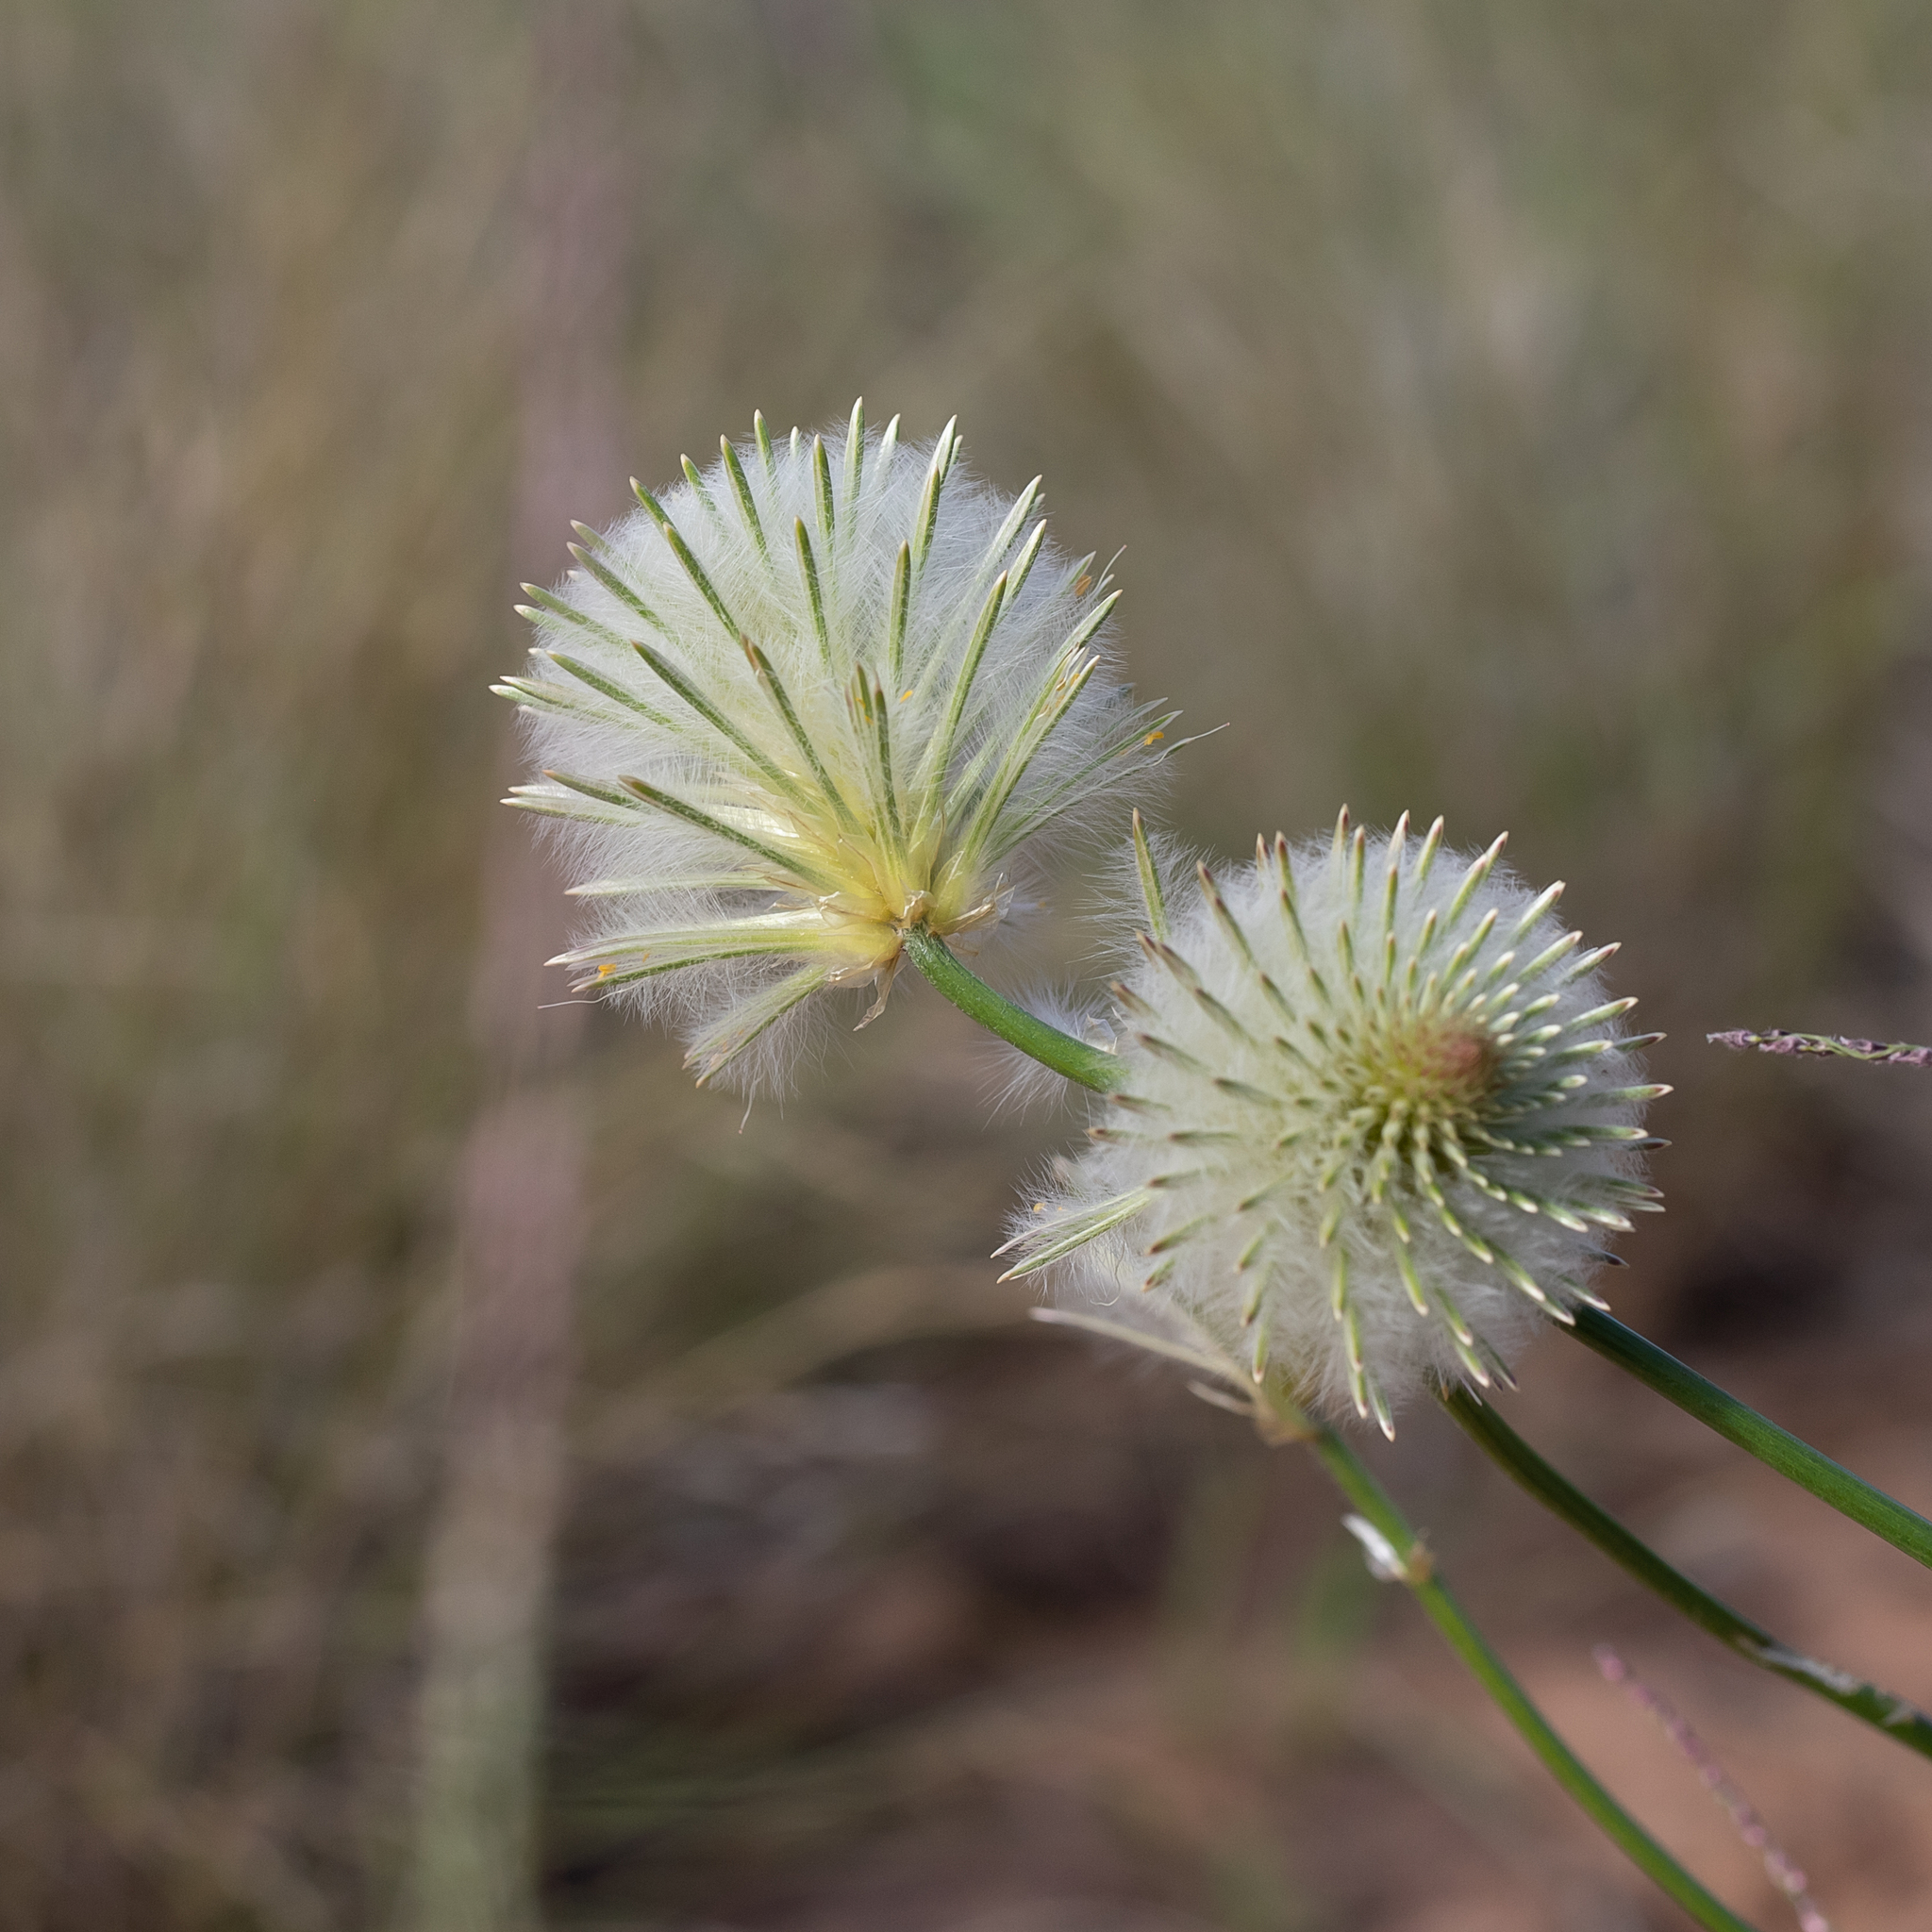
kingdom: Plantae
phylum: Tracheophyta
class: Magnoliopsida
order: Caryophyllales
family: Amaranthaceae
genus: Ptilotus
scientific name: Ptilotus xerophilus
